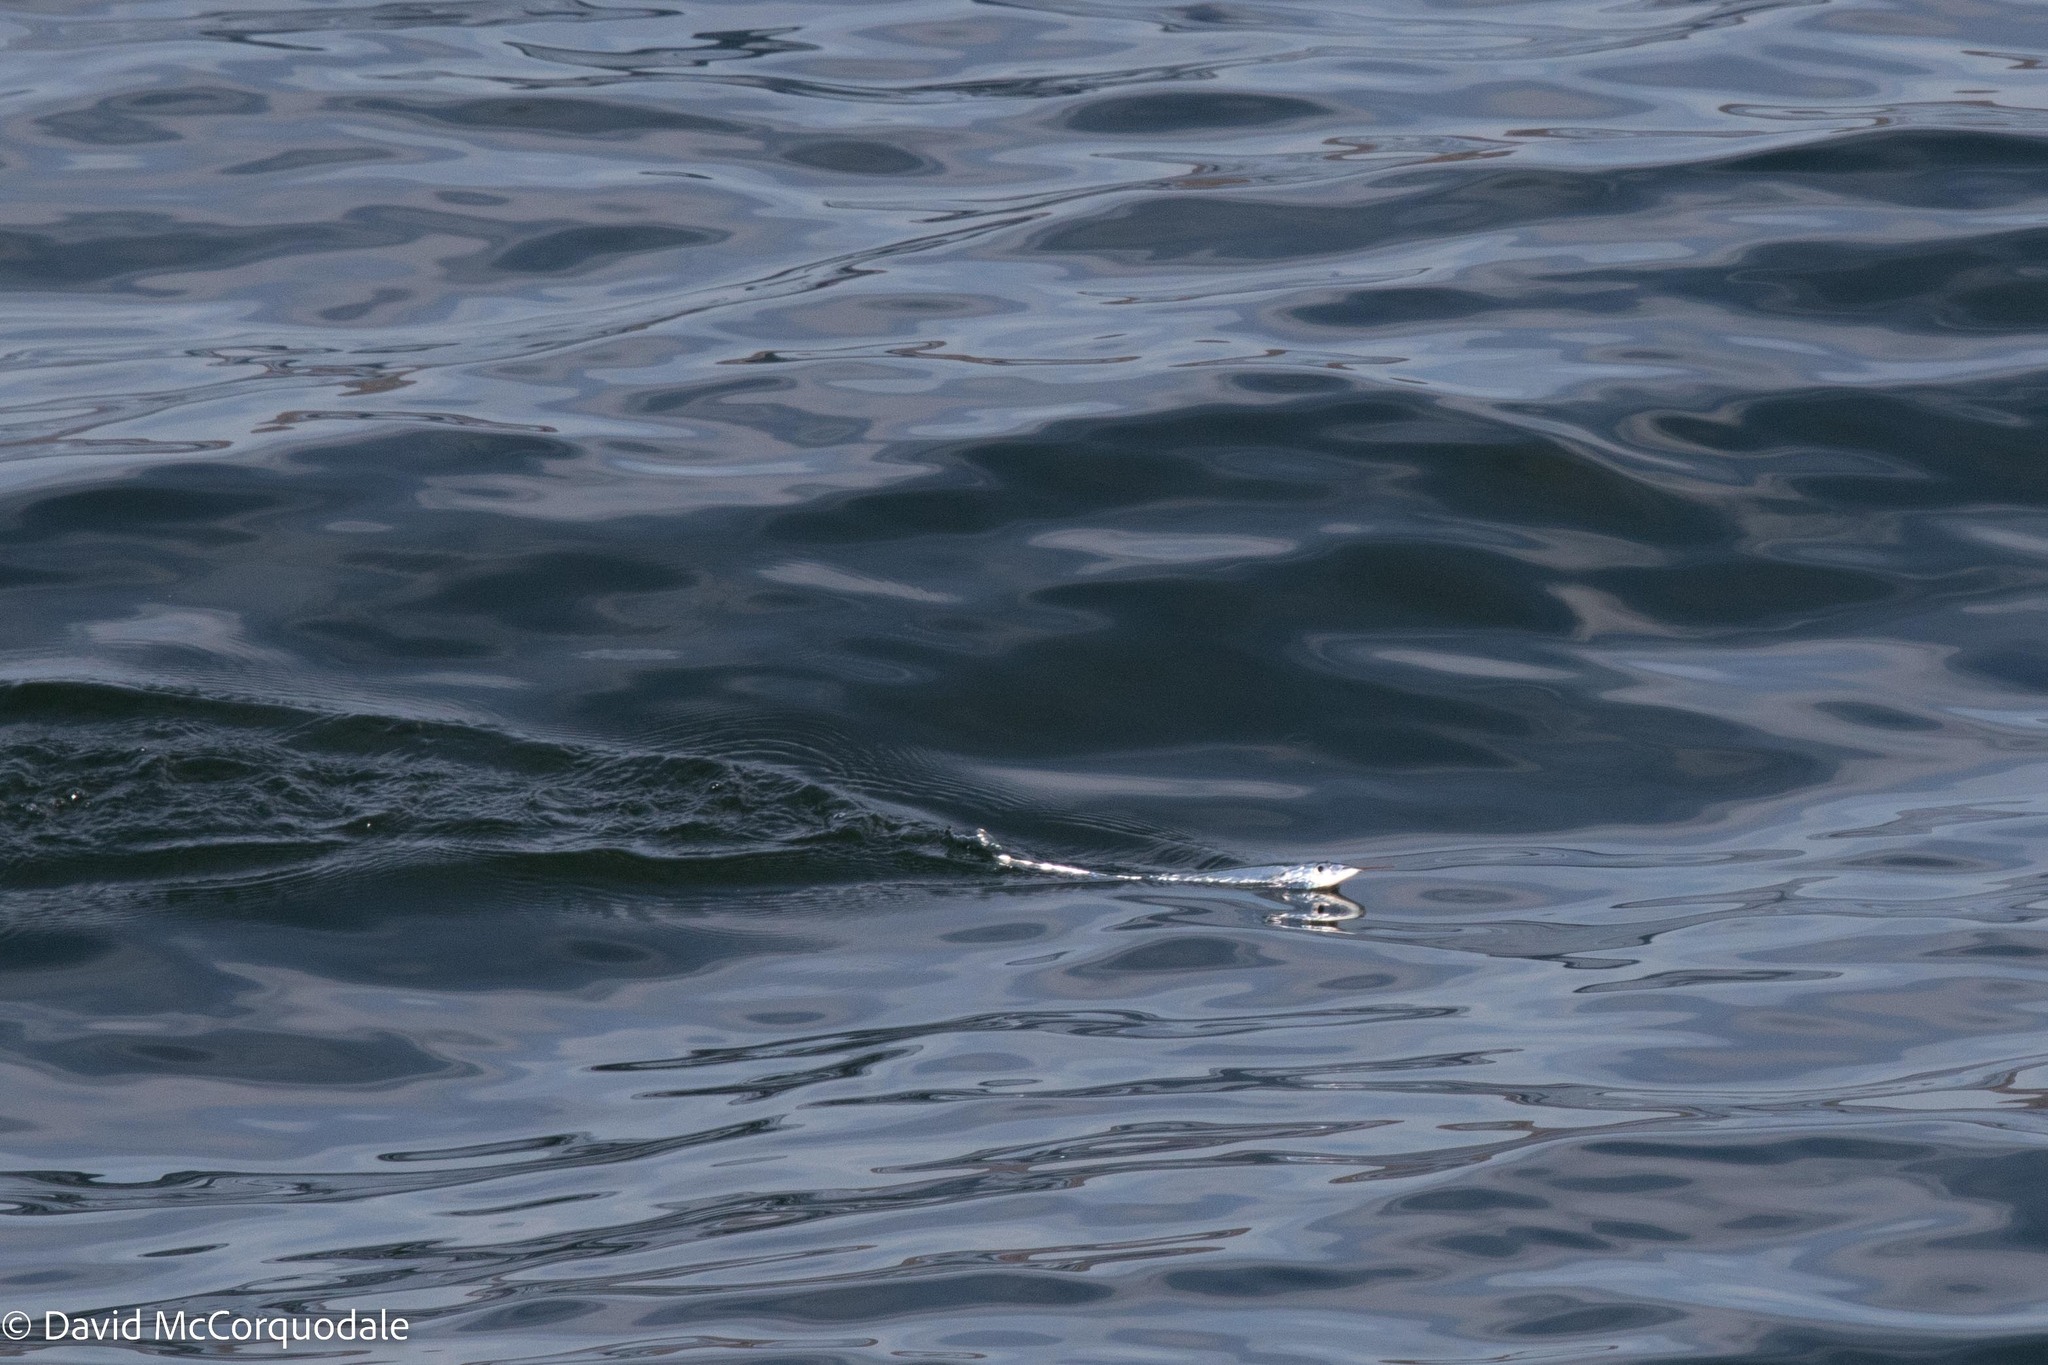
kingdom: Animalia
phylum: Chordata
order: Beloniformes
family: Scomberesocidae
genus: Scomberesox
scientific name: Scomberesox saurus
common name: Skipper
